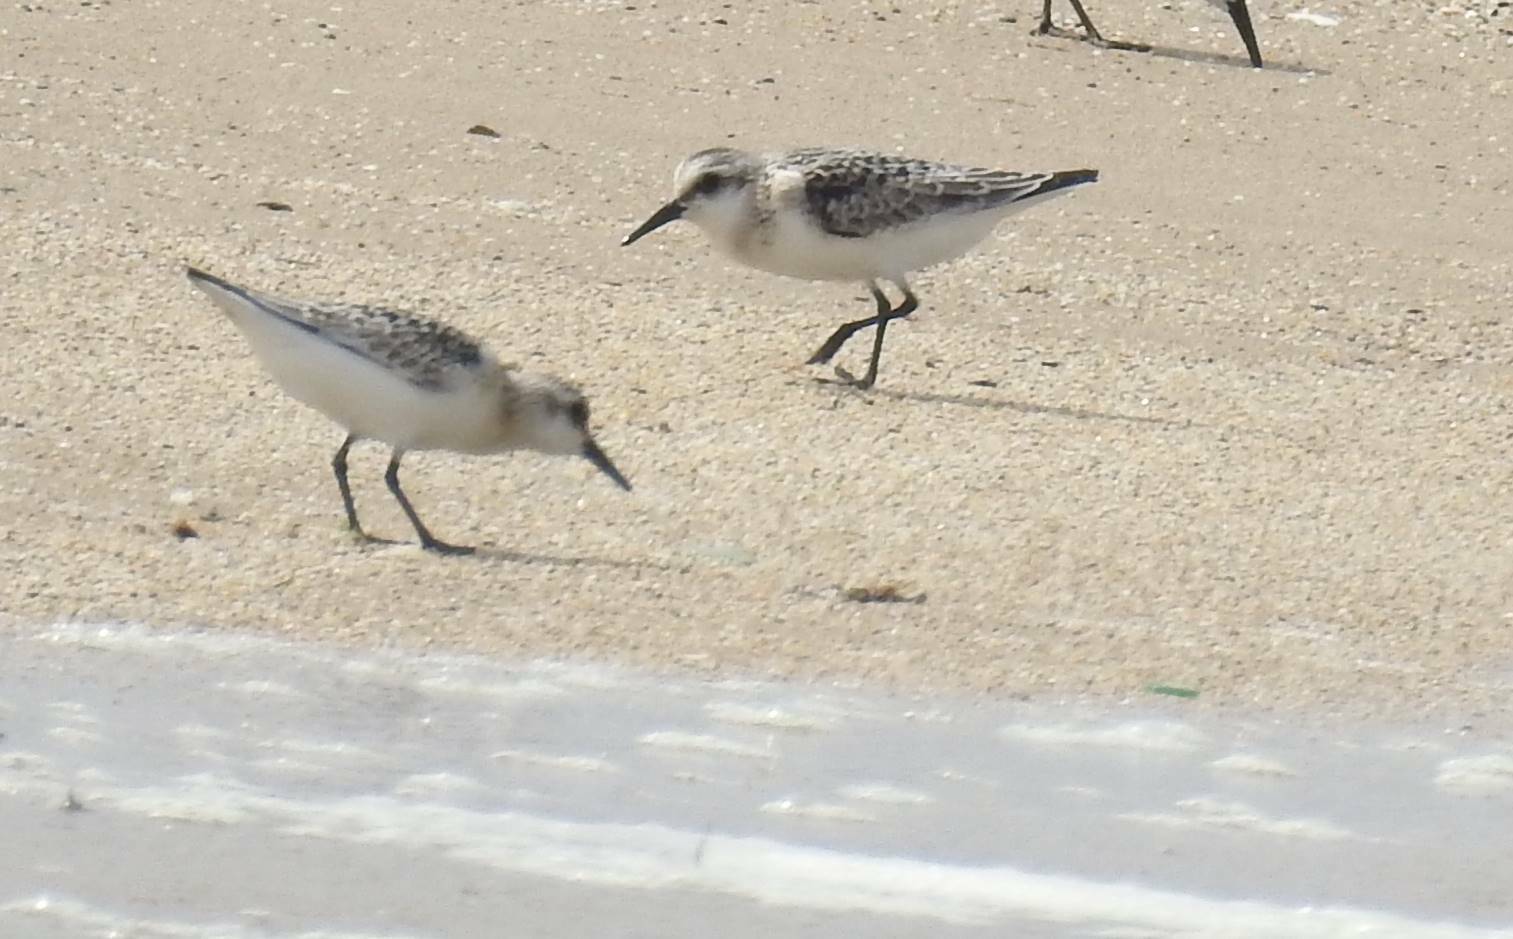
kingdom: Animalia
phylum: Chordata
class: Aves
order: Charadriiformes
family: Scolopacidae
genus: Calidris
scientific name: Calidris alba
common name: Sanderling
